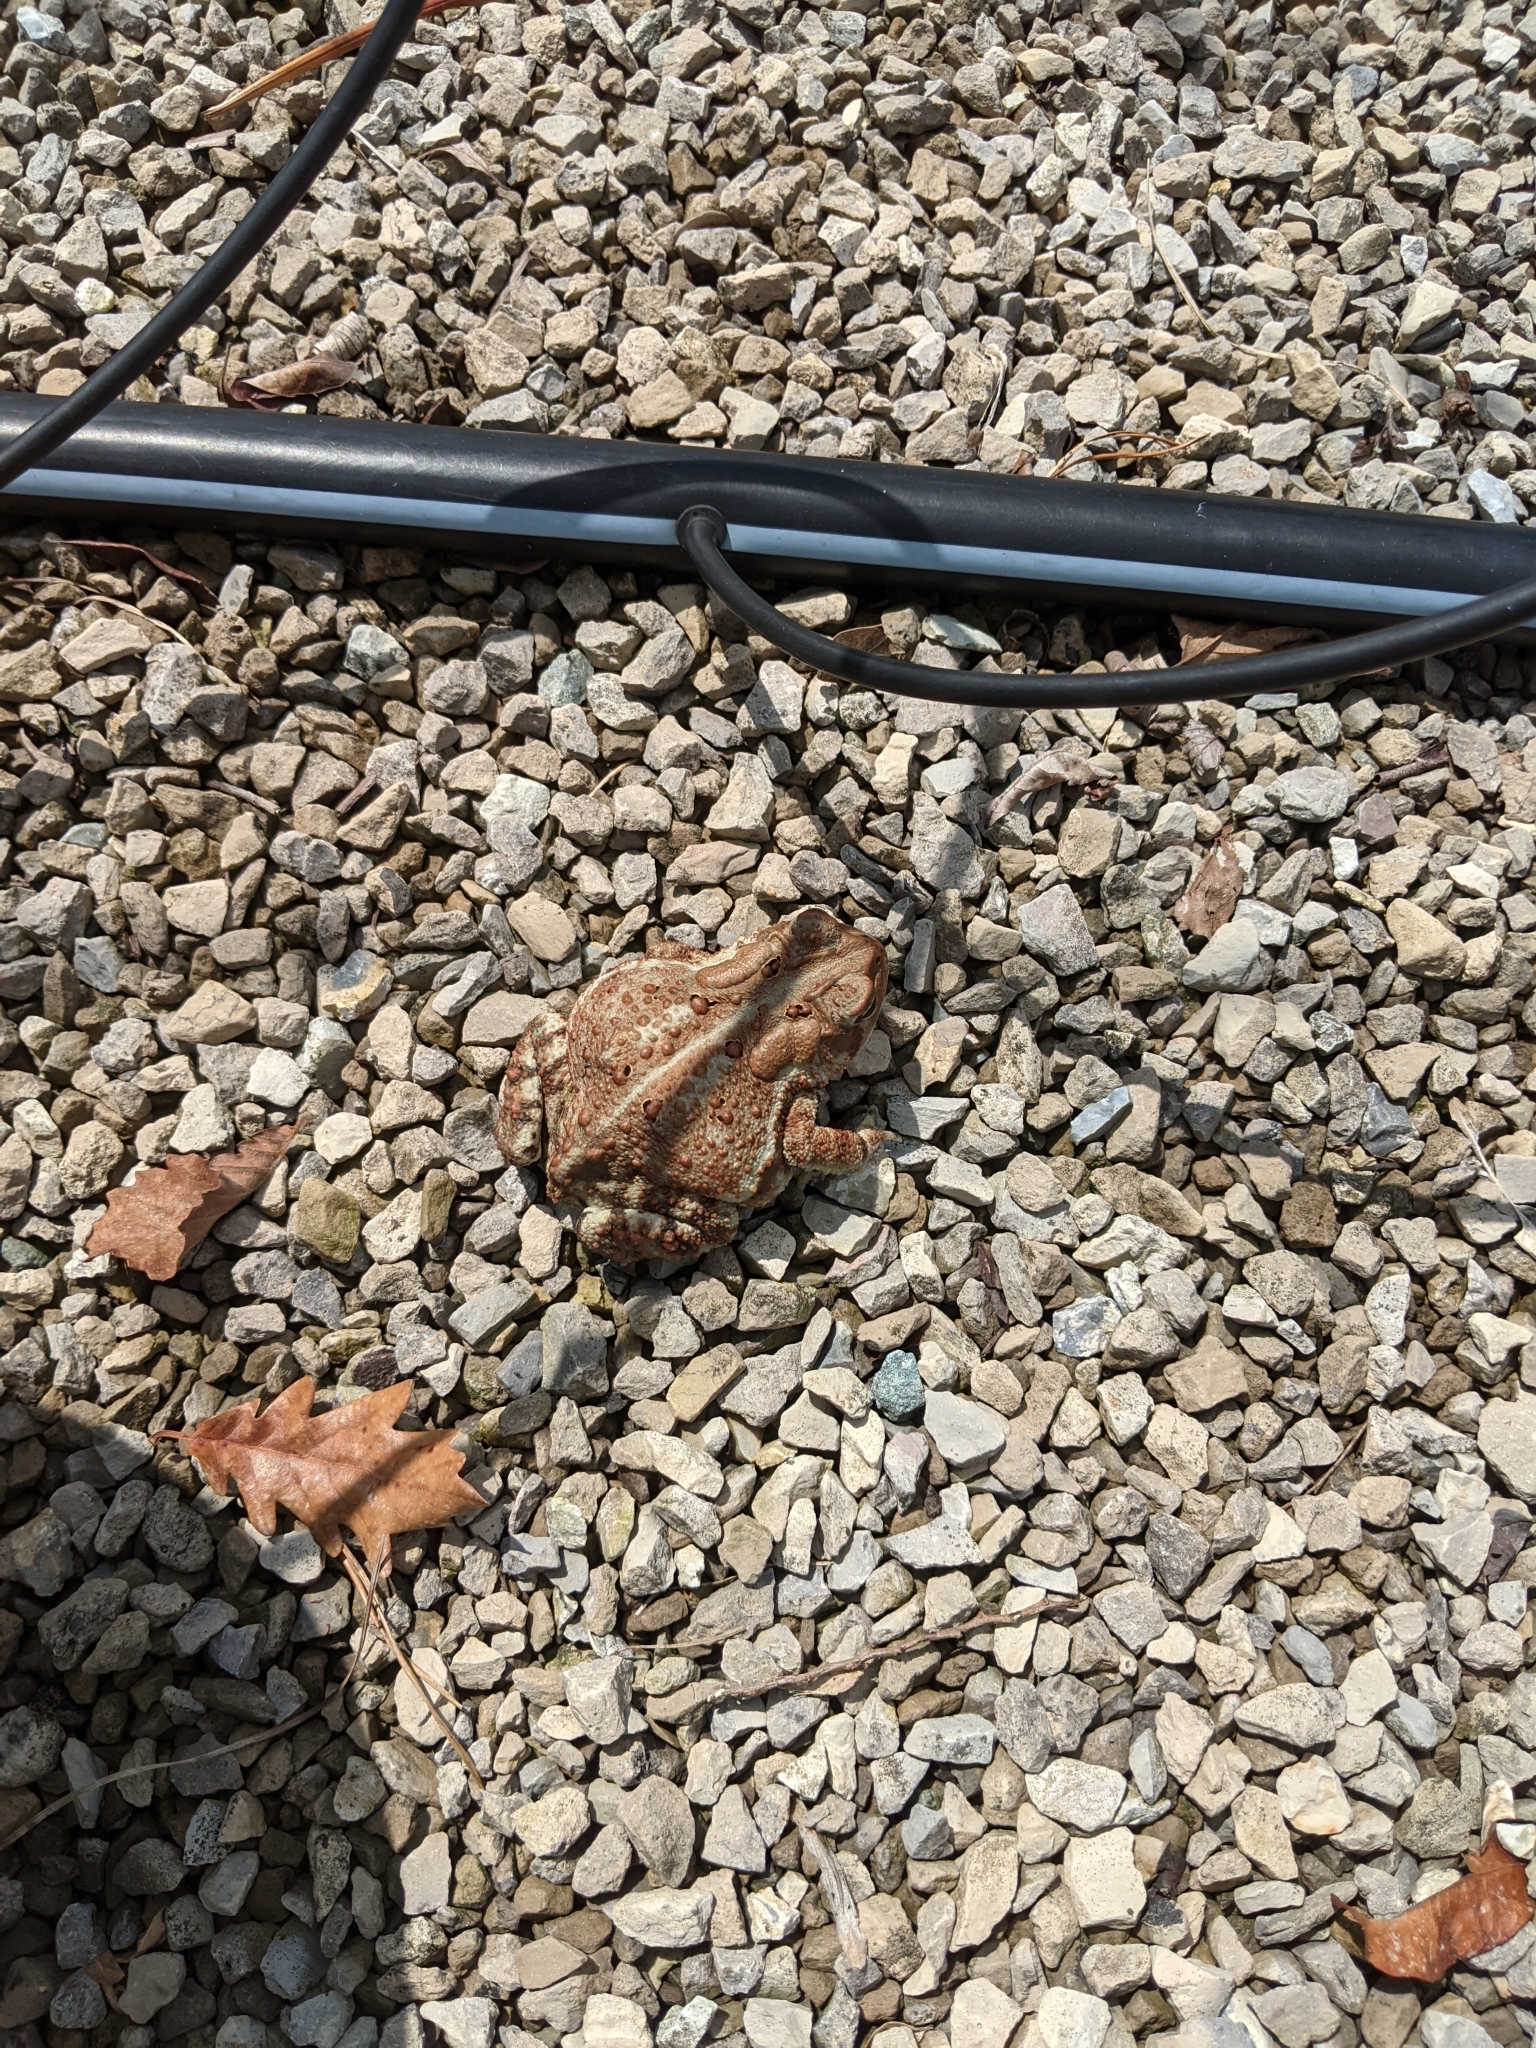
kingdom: Animalia
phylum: Chordata
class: Amphibia
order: Anura
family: Bufonidae
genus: Anaxyrus
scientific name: Anaxyrus americanus
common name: American toad
